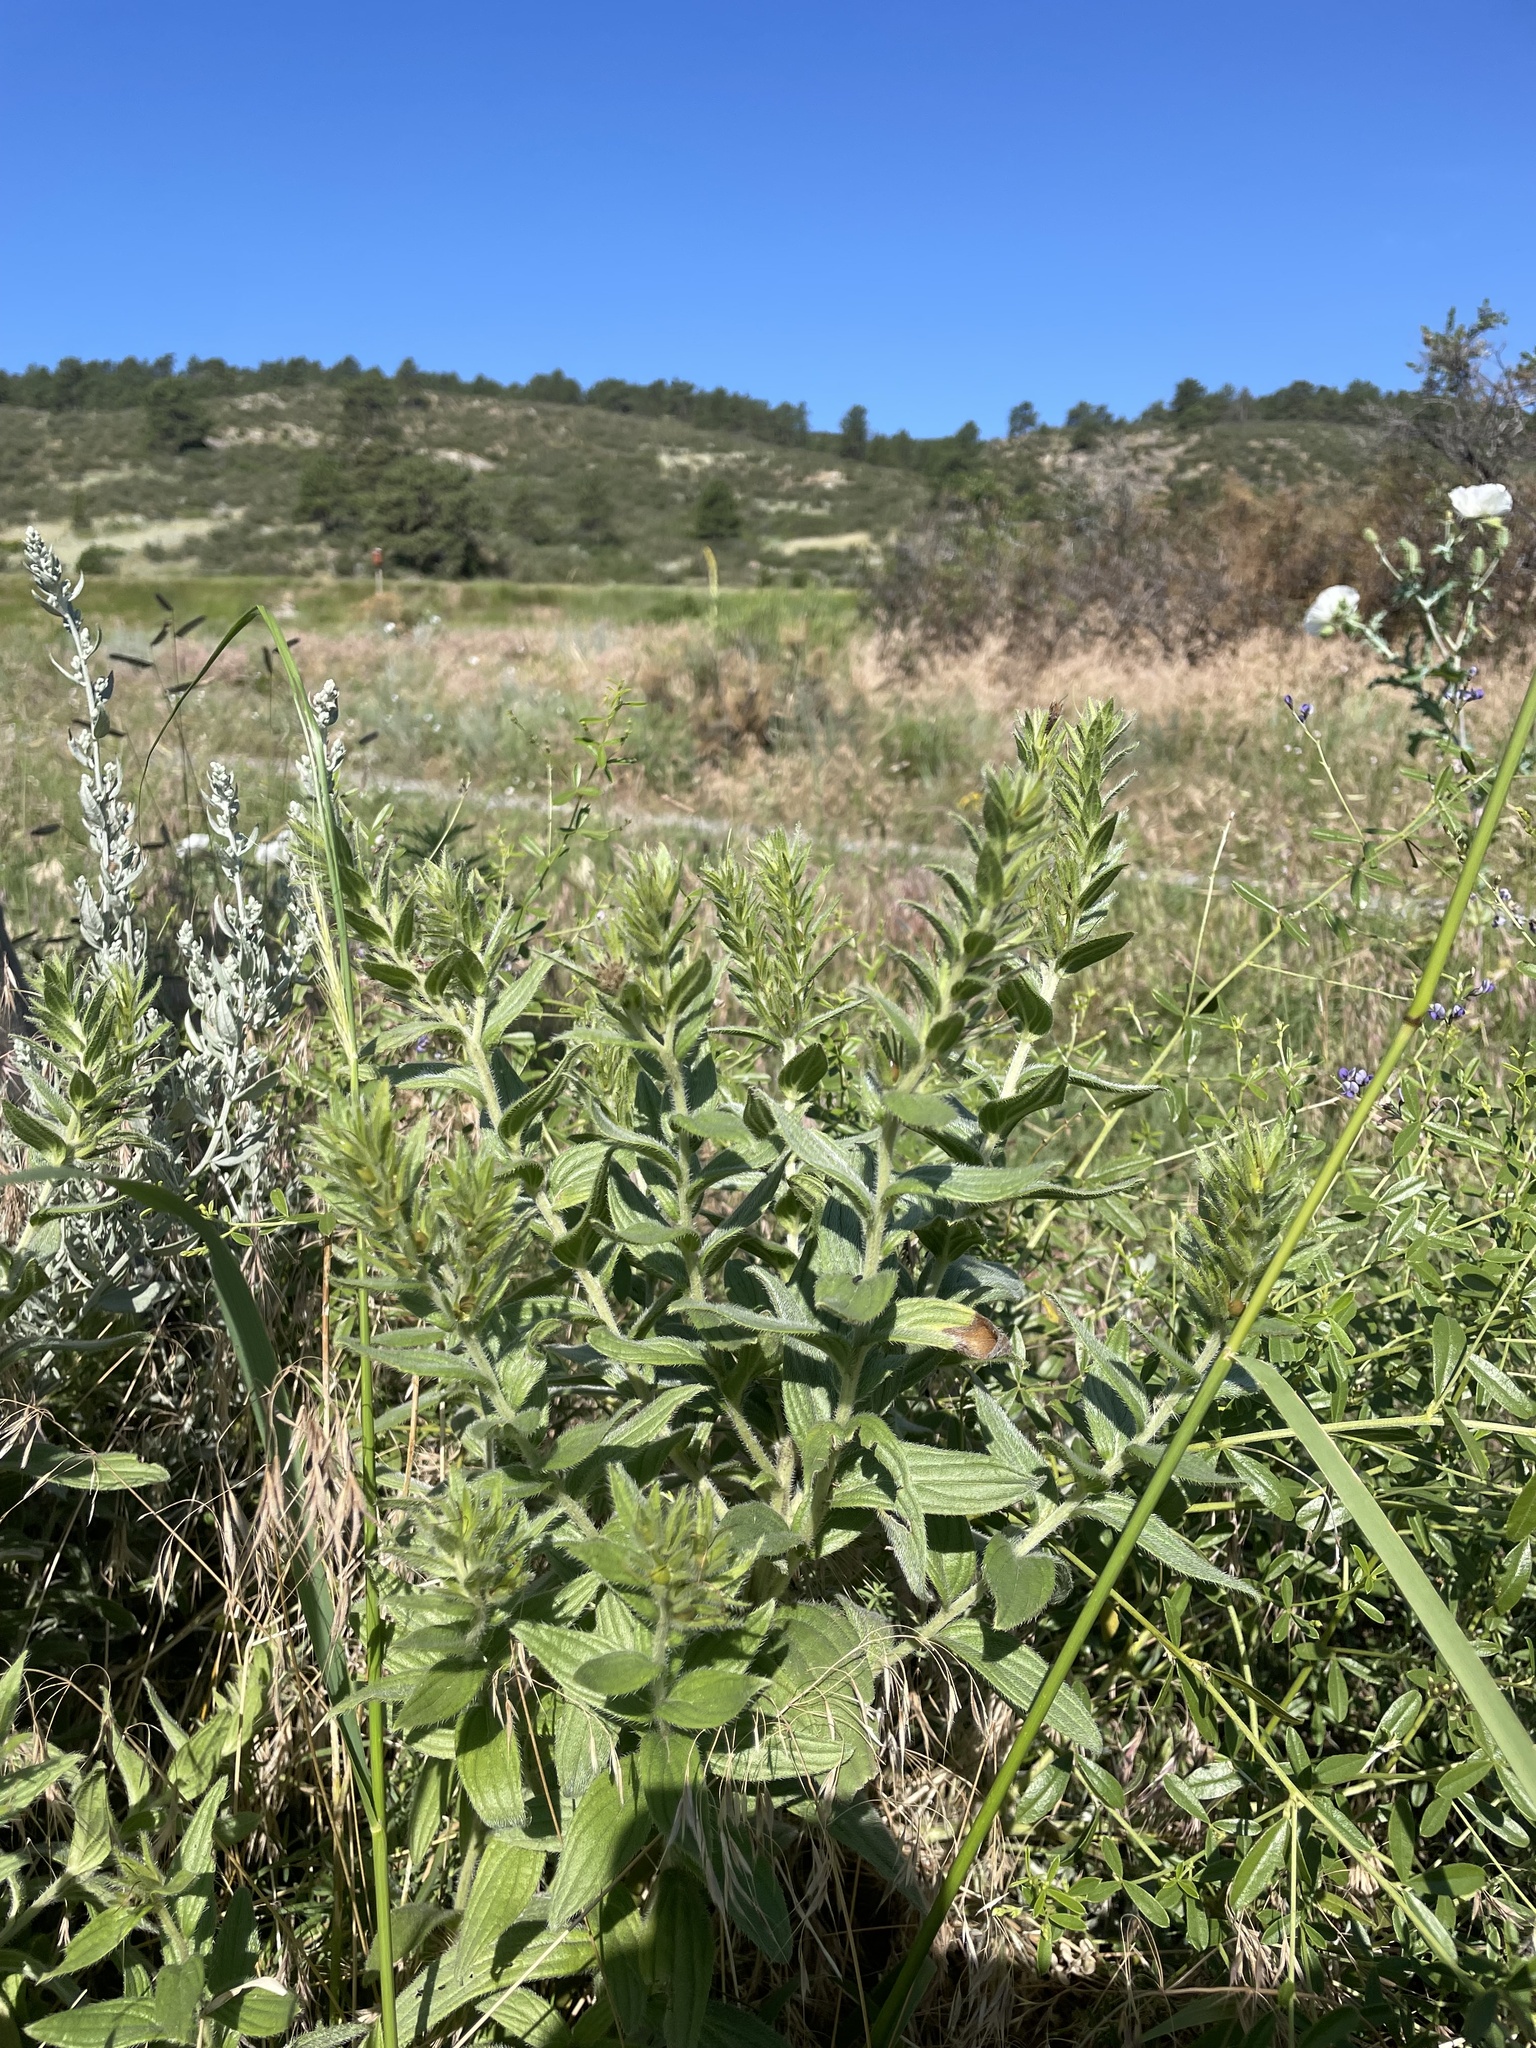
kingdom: Plantae
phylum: Tracheophyta
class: Magnoliopsida
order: Boraginales
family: Boraginaceae
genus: Lithospermum
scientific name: Lithospermum occidentale
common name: Western false gromwell
